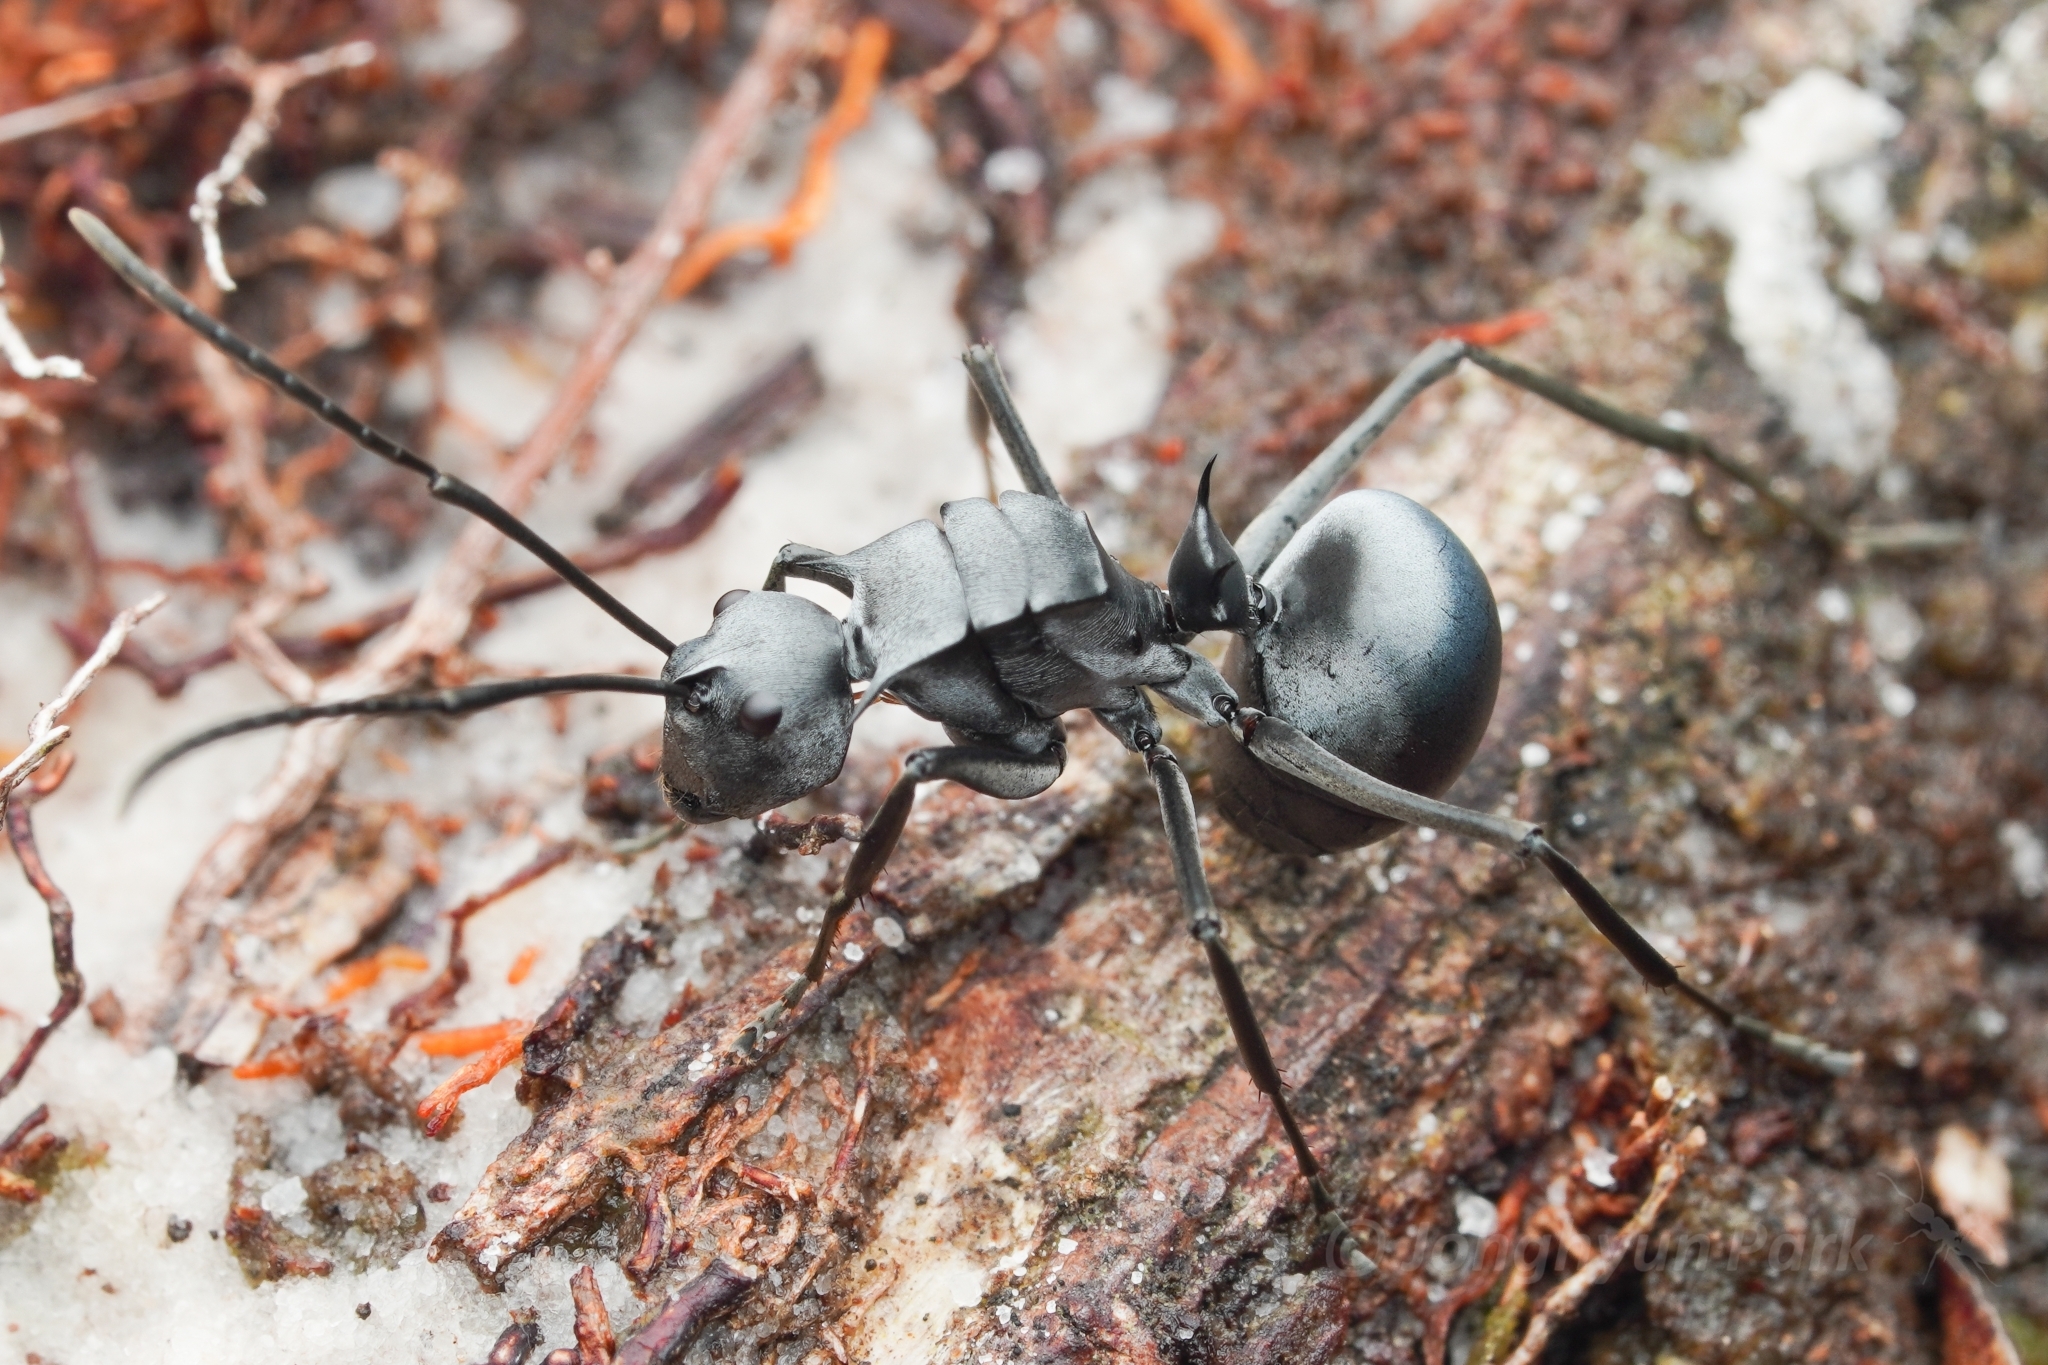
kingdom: Animalia
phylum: Arthropoda
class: Insecta
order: Hymenoptera
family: Formicidae
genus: Polyrhachis
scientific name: Polyrhachis pruinosa
